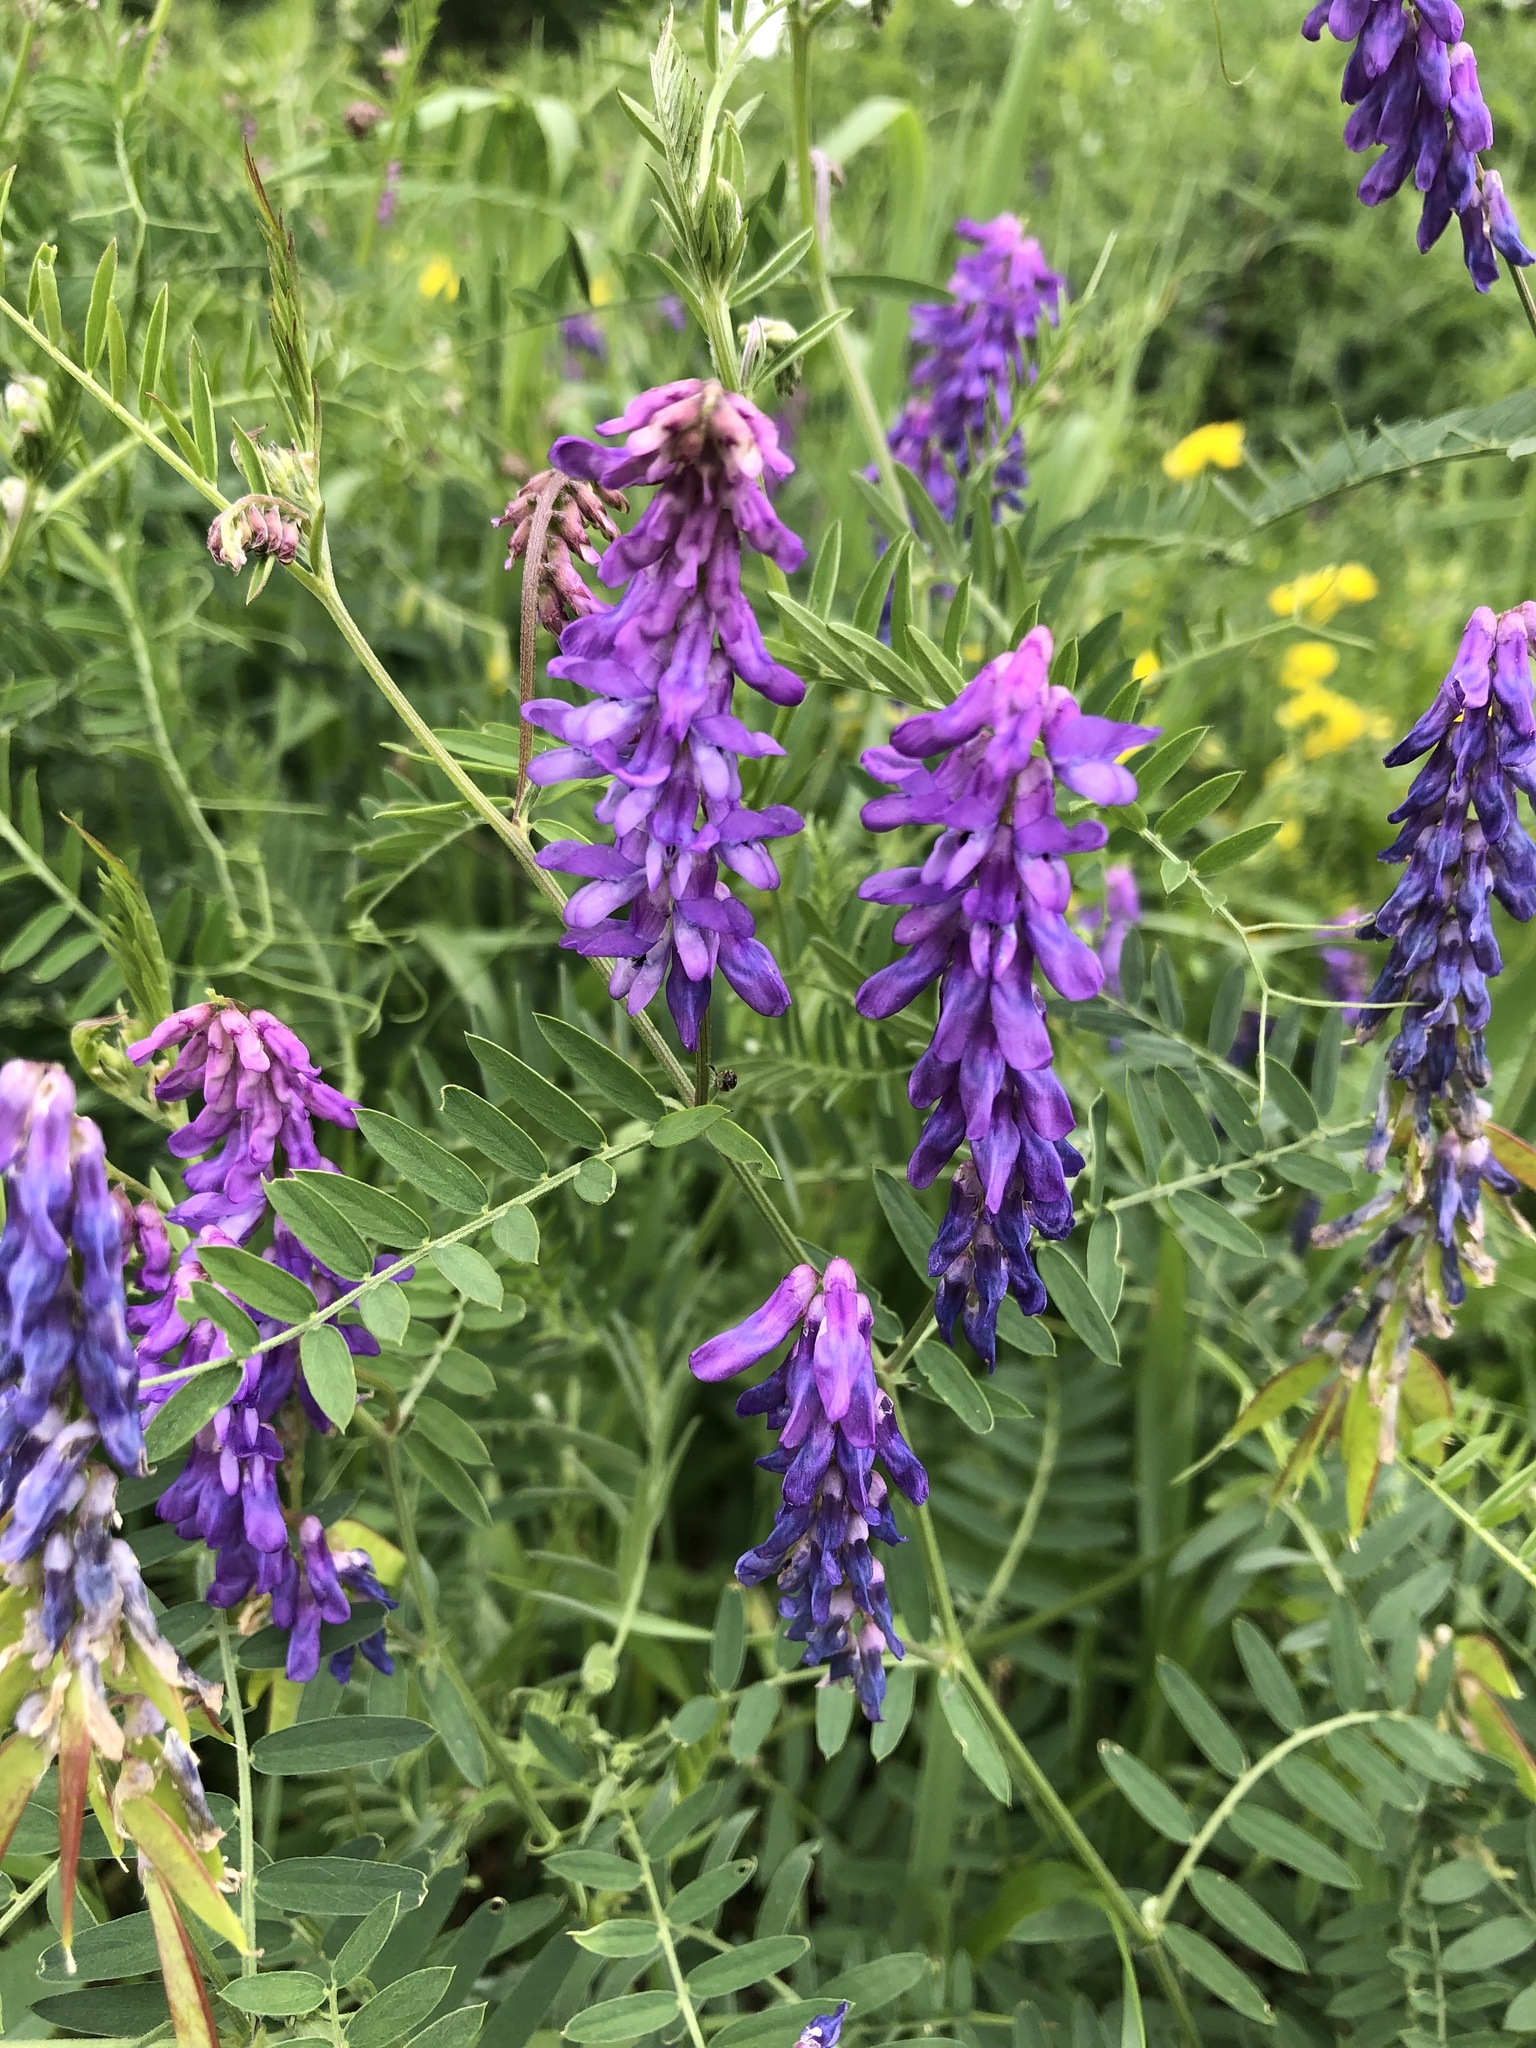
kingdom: Plantae
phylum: Tracheophyta
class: Magnoliopsida
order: Fabales
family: Fabaceae
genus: Vicia
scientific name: Vicia cracca
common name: Bird vetch
